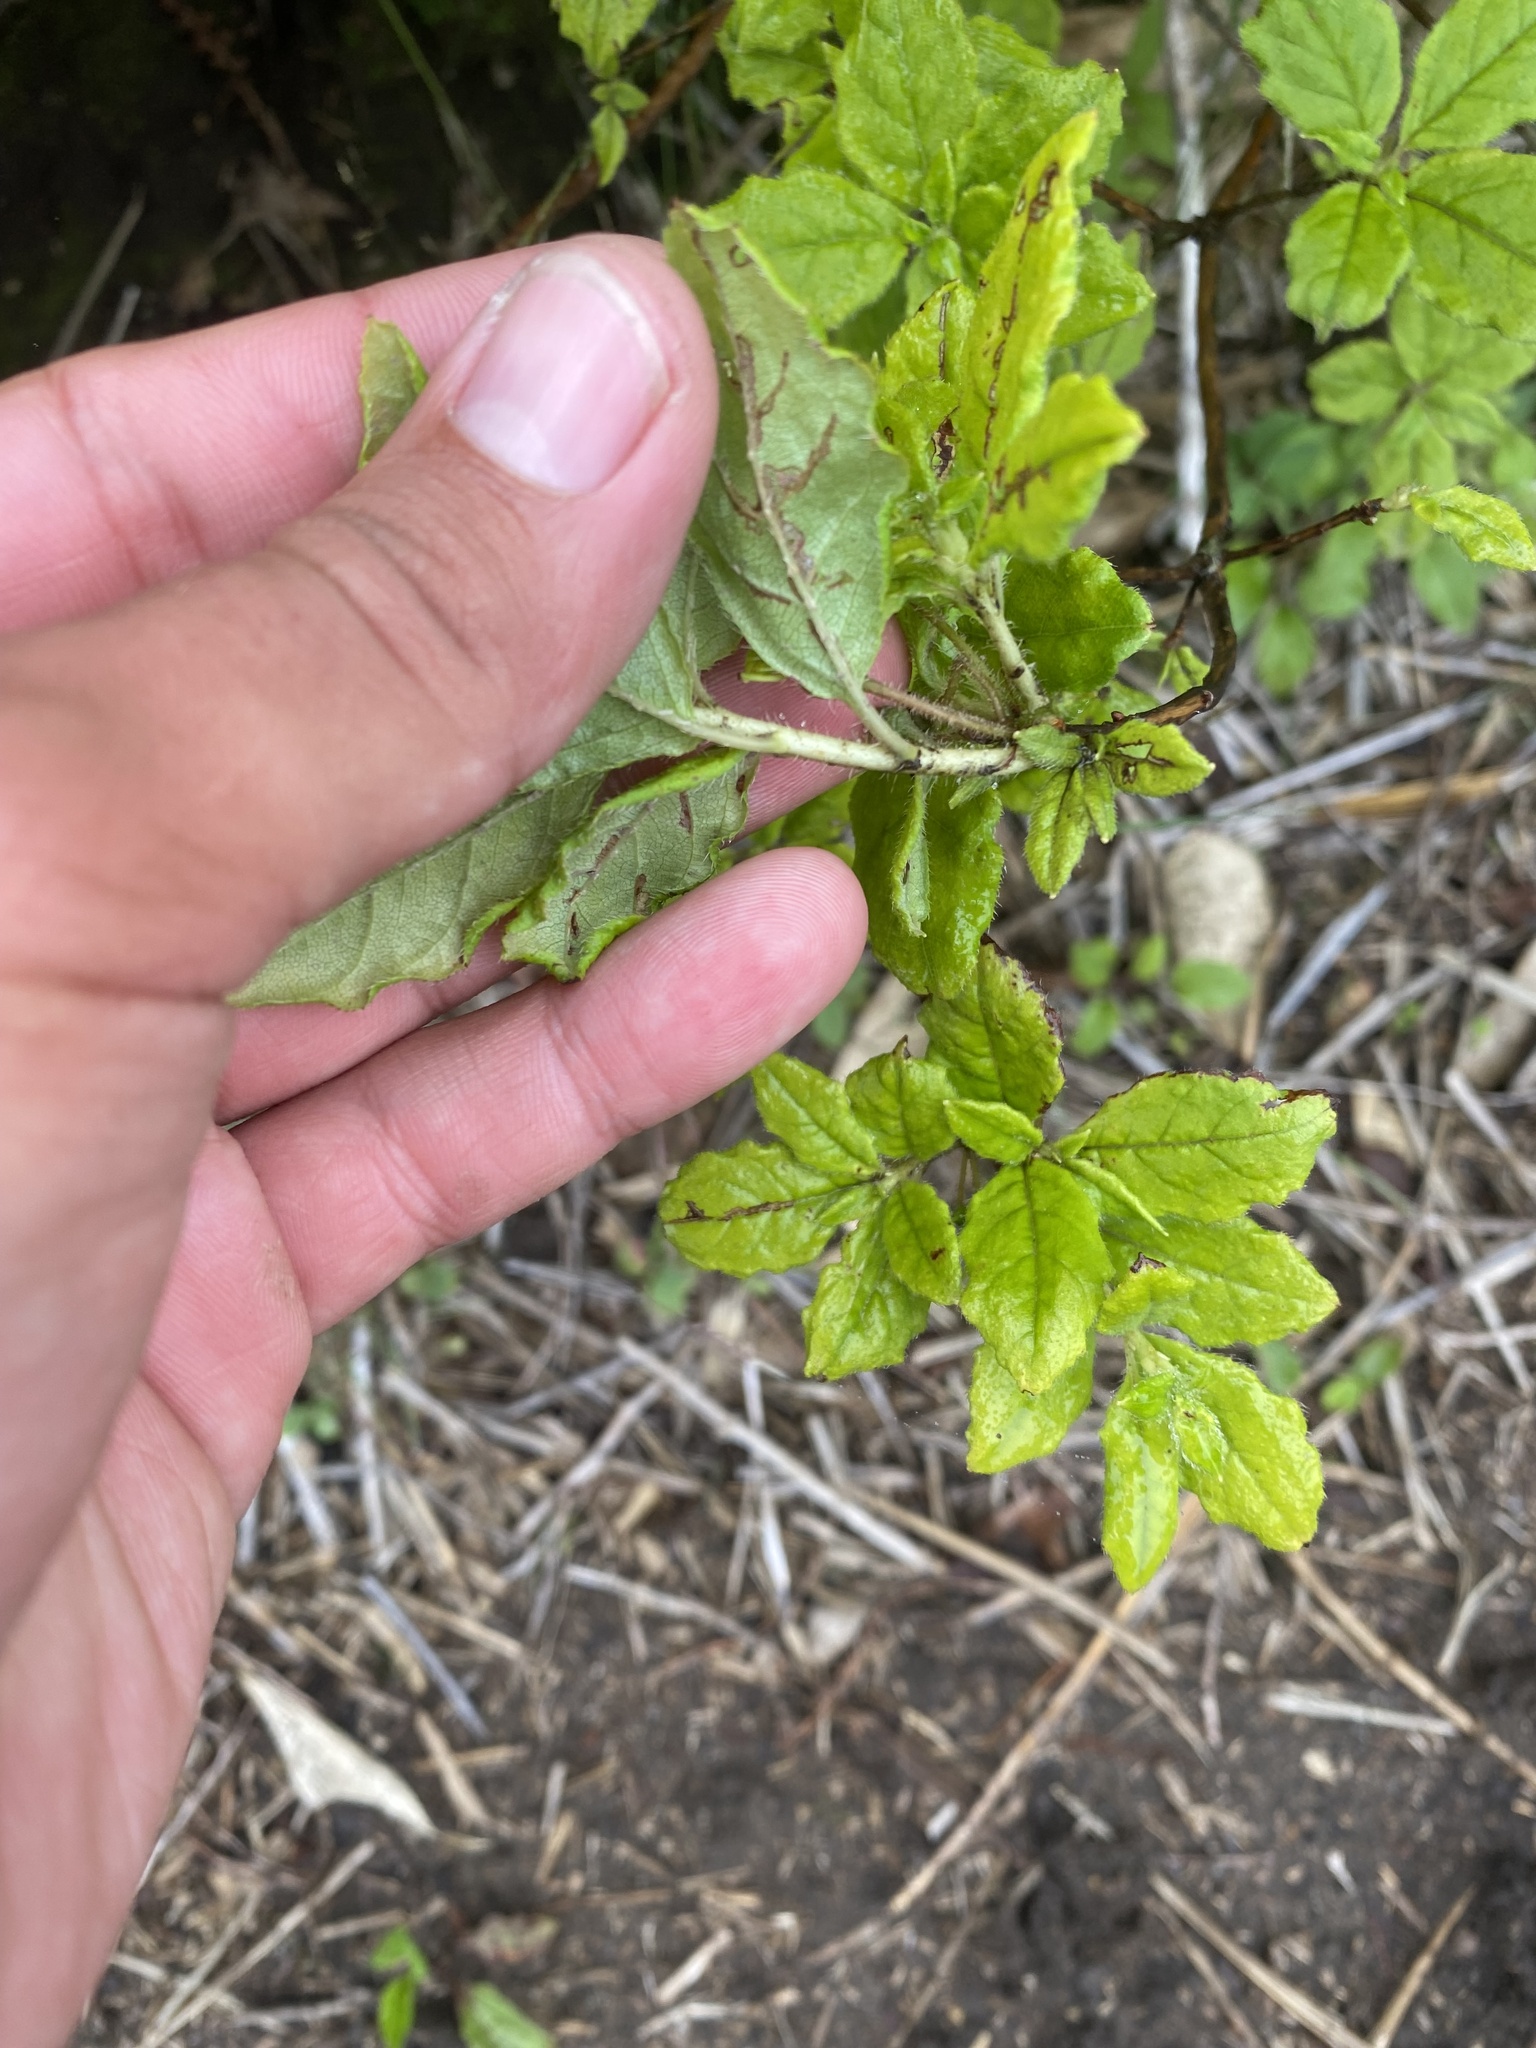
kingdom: Plantae
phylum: Tracheophyta
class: Magnoliopsida
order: Ericales
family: Ericaceae
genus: Rhododendron
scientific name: Rhododendron pentandrum
